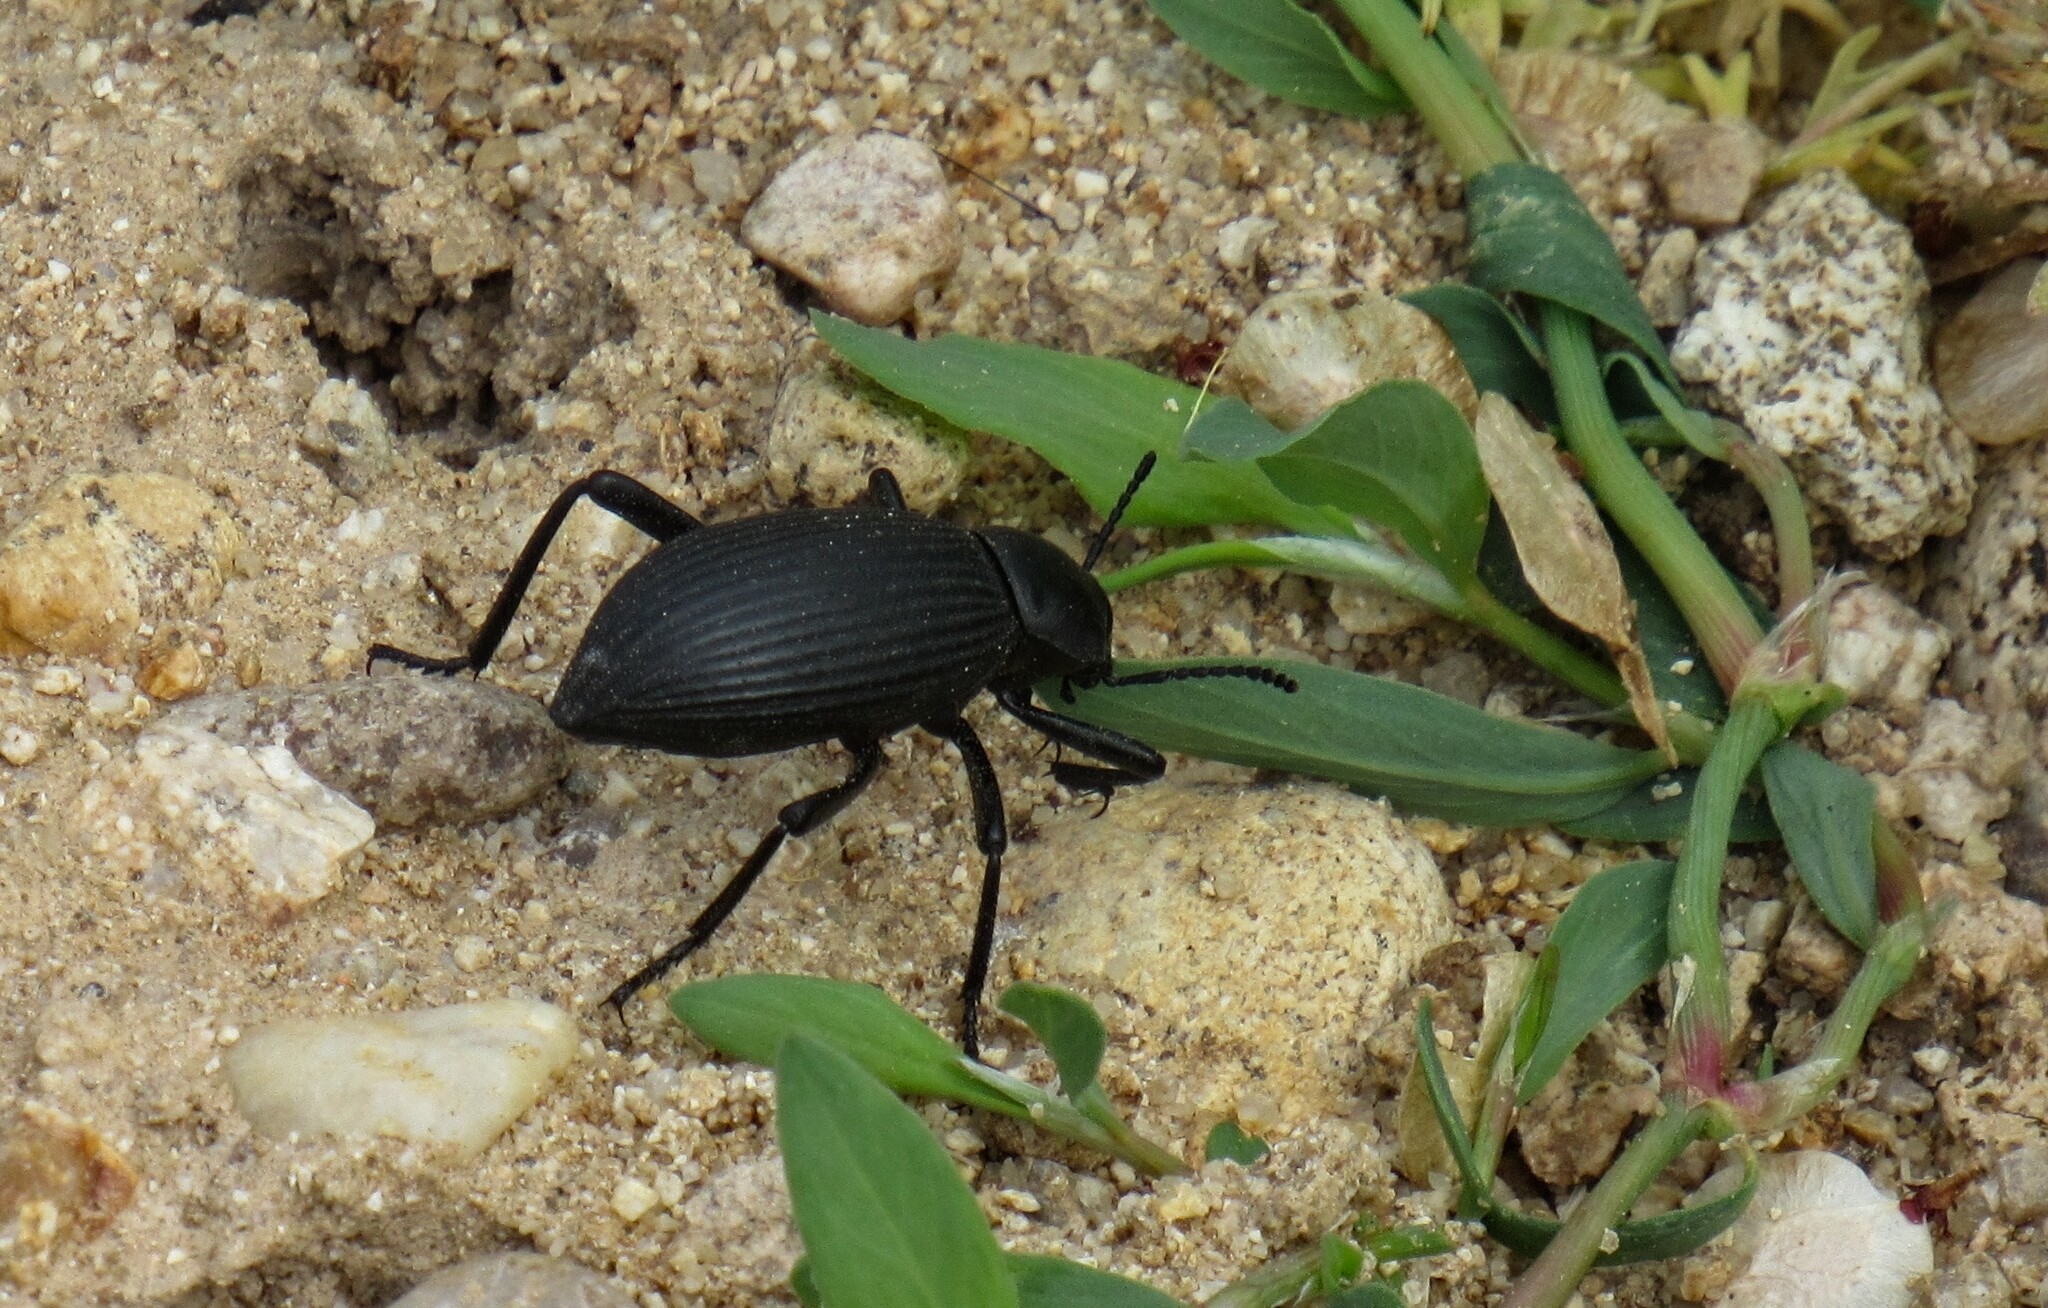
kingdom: Animalia
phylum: Arthropoda
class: Insecta
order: Coleoptera
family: Tenebrionidae
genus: Eleodes
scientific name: Eleodes hispilabris
